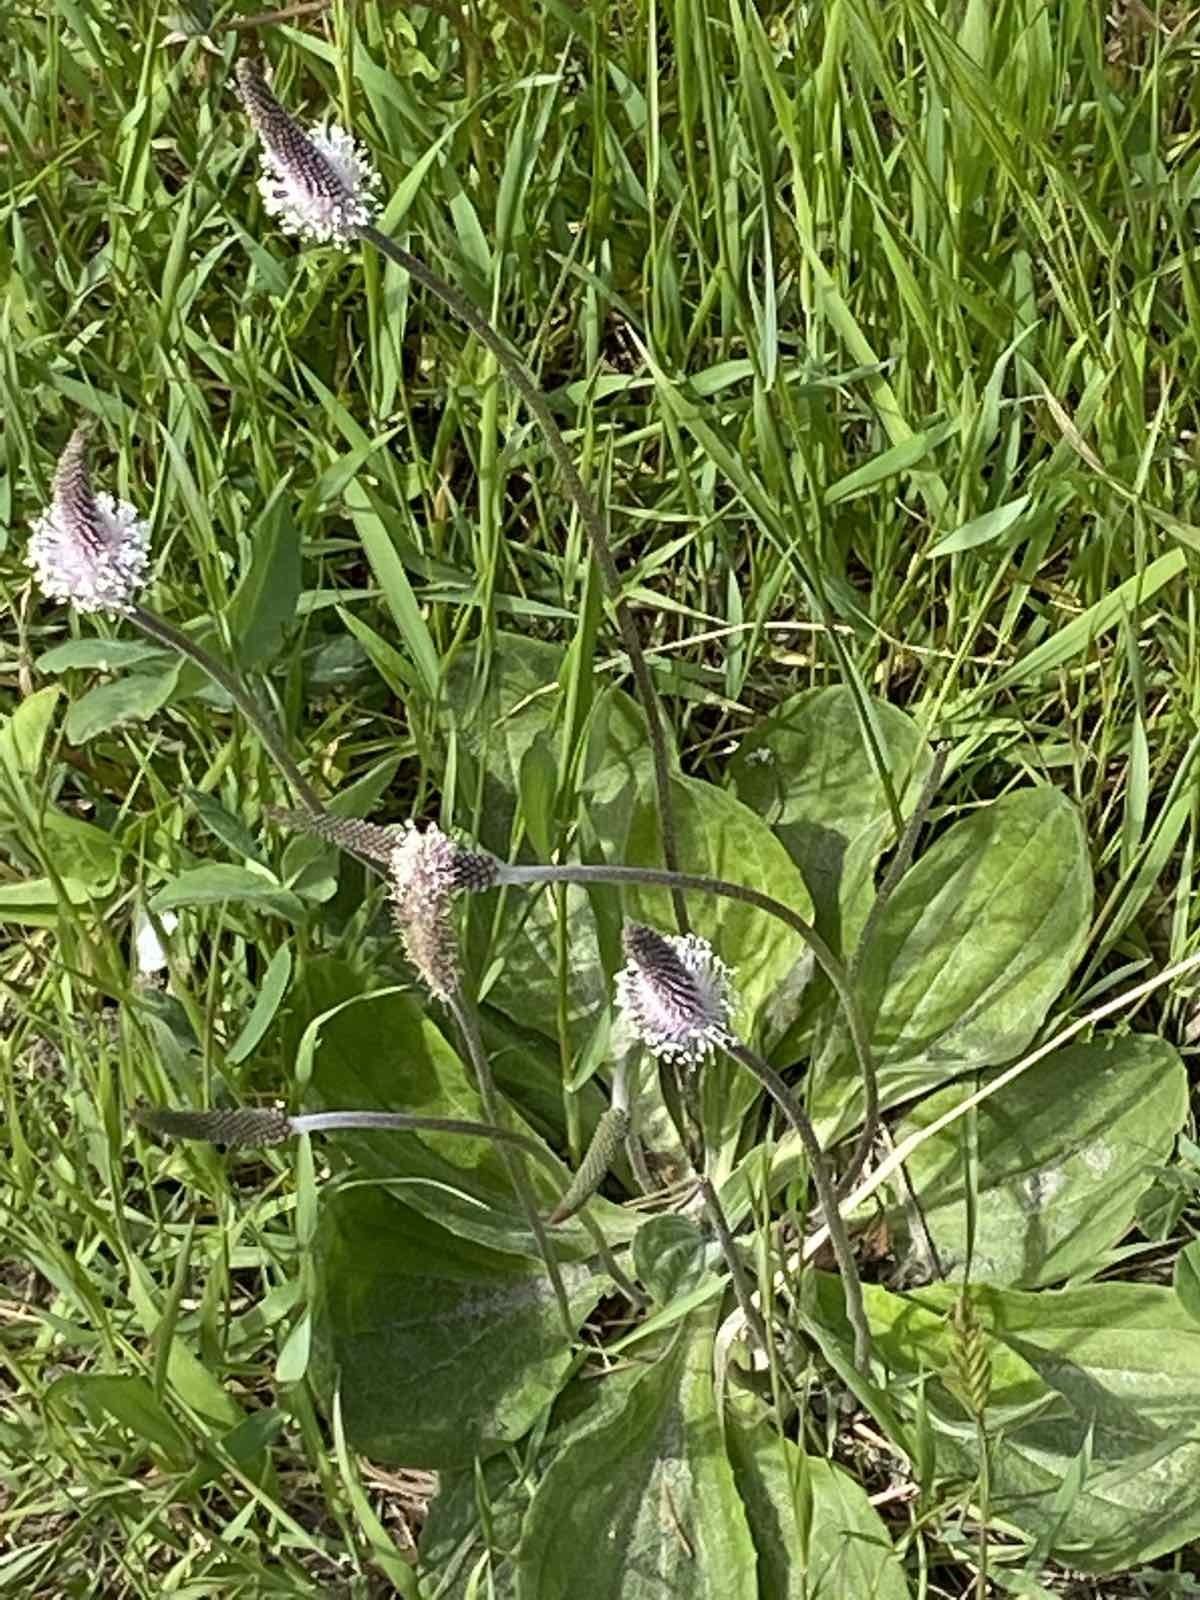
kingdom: Plantae
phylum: Tracheophyta
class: Magnoliopsida
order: Lamiales
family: Plantaginaceae
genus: Plantago
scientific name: Plantago media
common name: Hoary plantain
